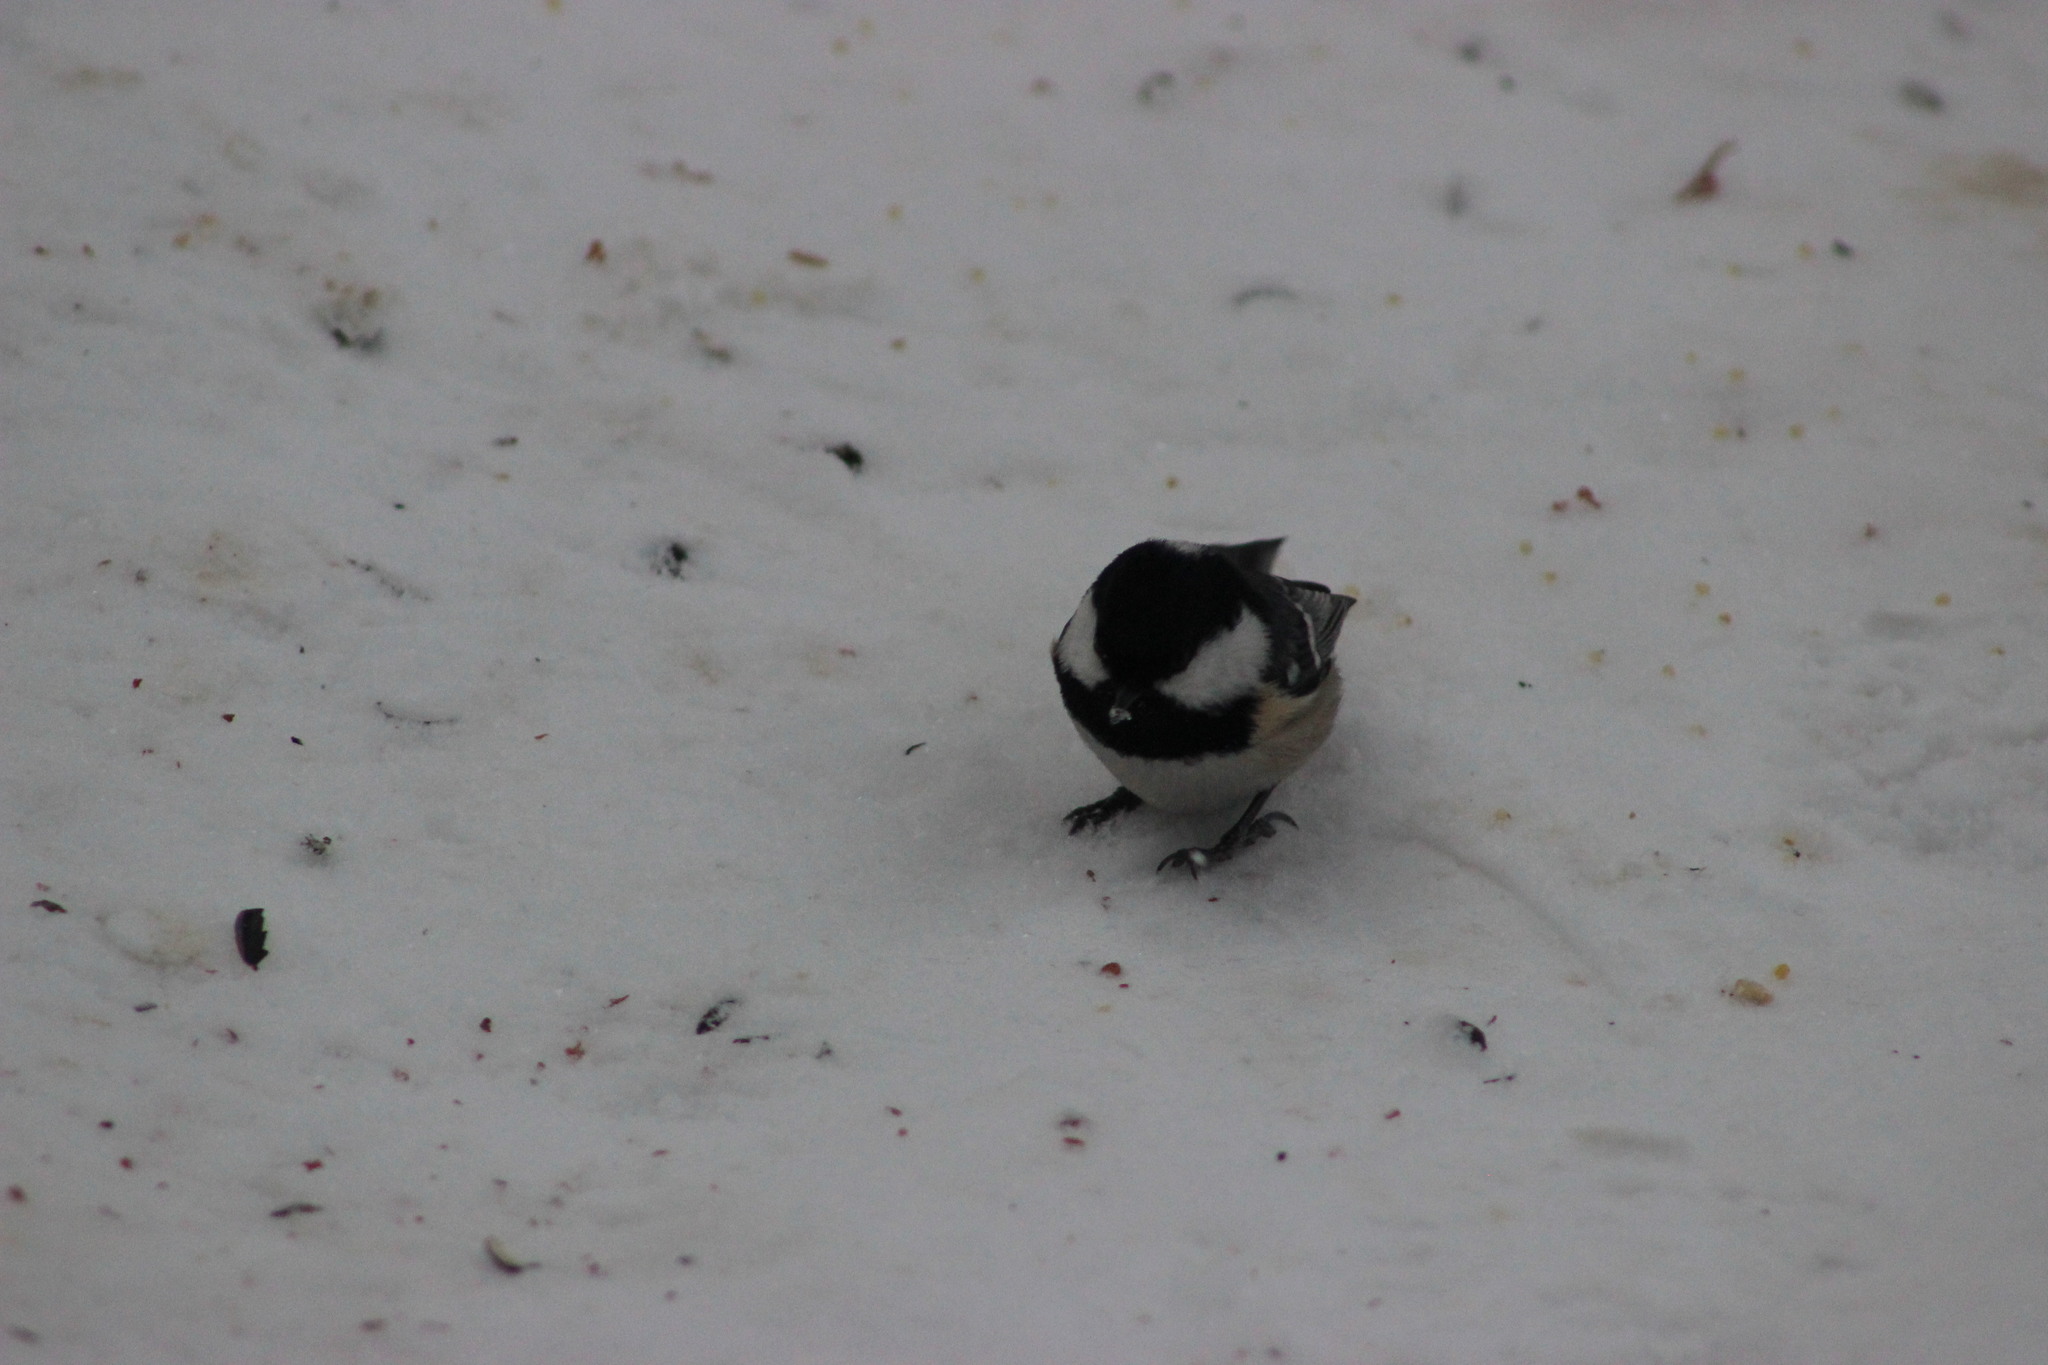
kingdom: Animalia
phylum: Chordata
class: Aves
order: Passeriformes
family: Paridae
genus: Periparus
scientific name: Periparus ater
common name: Coal tit
